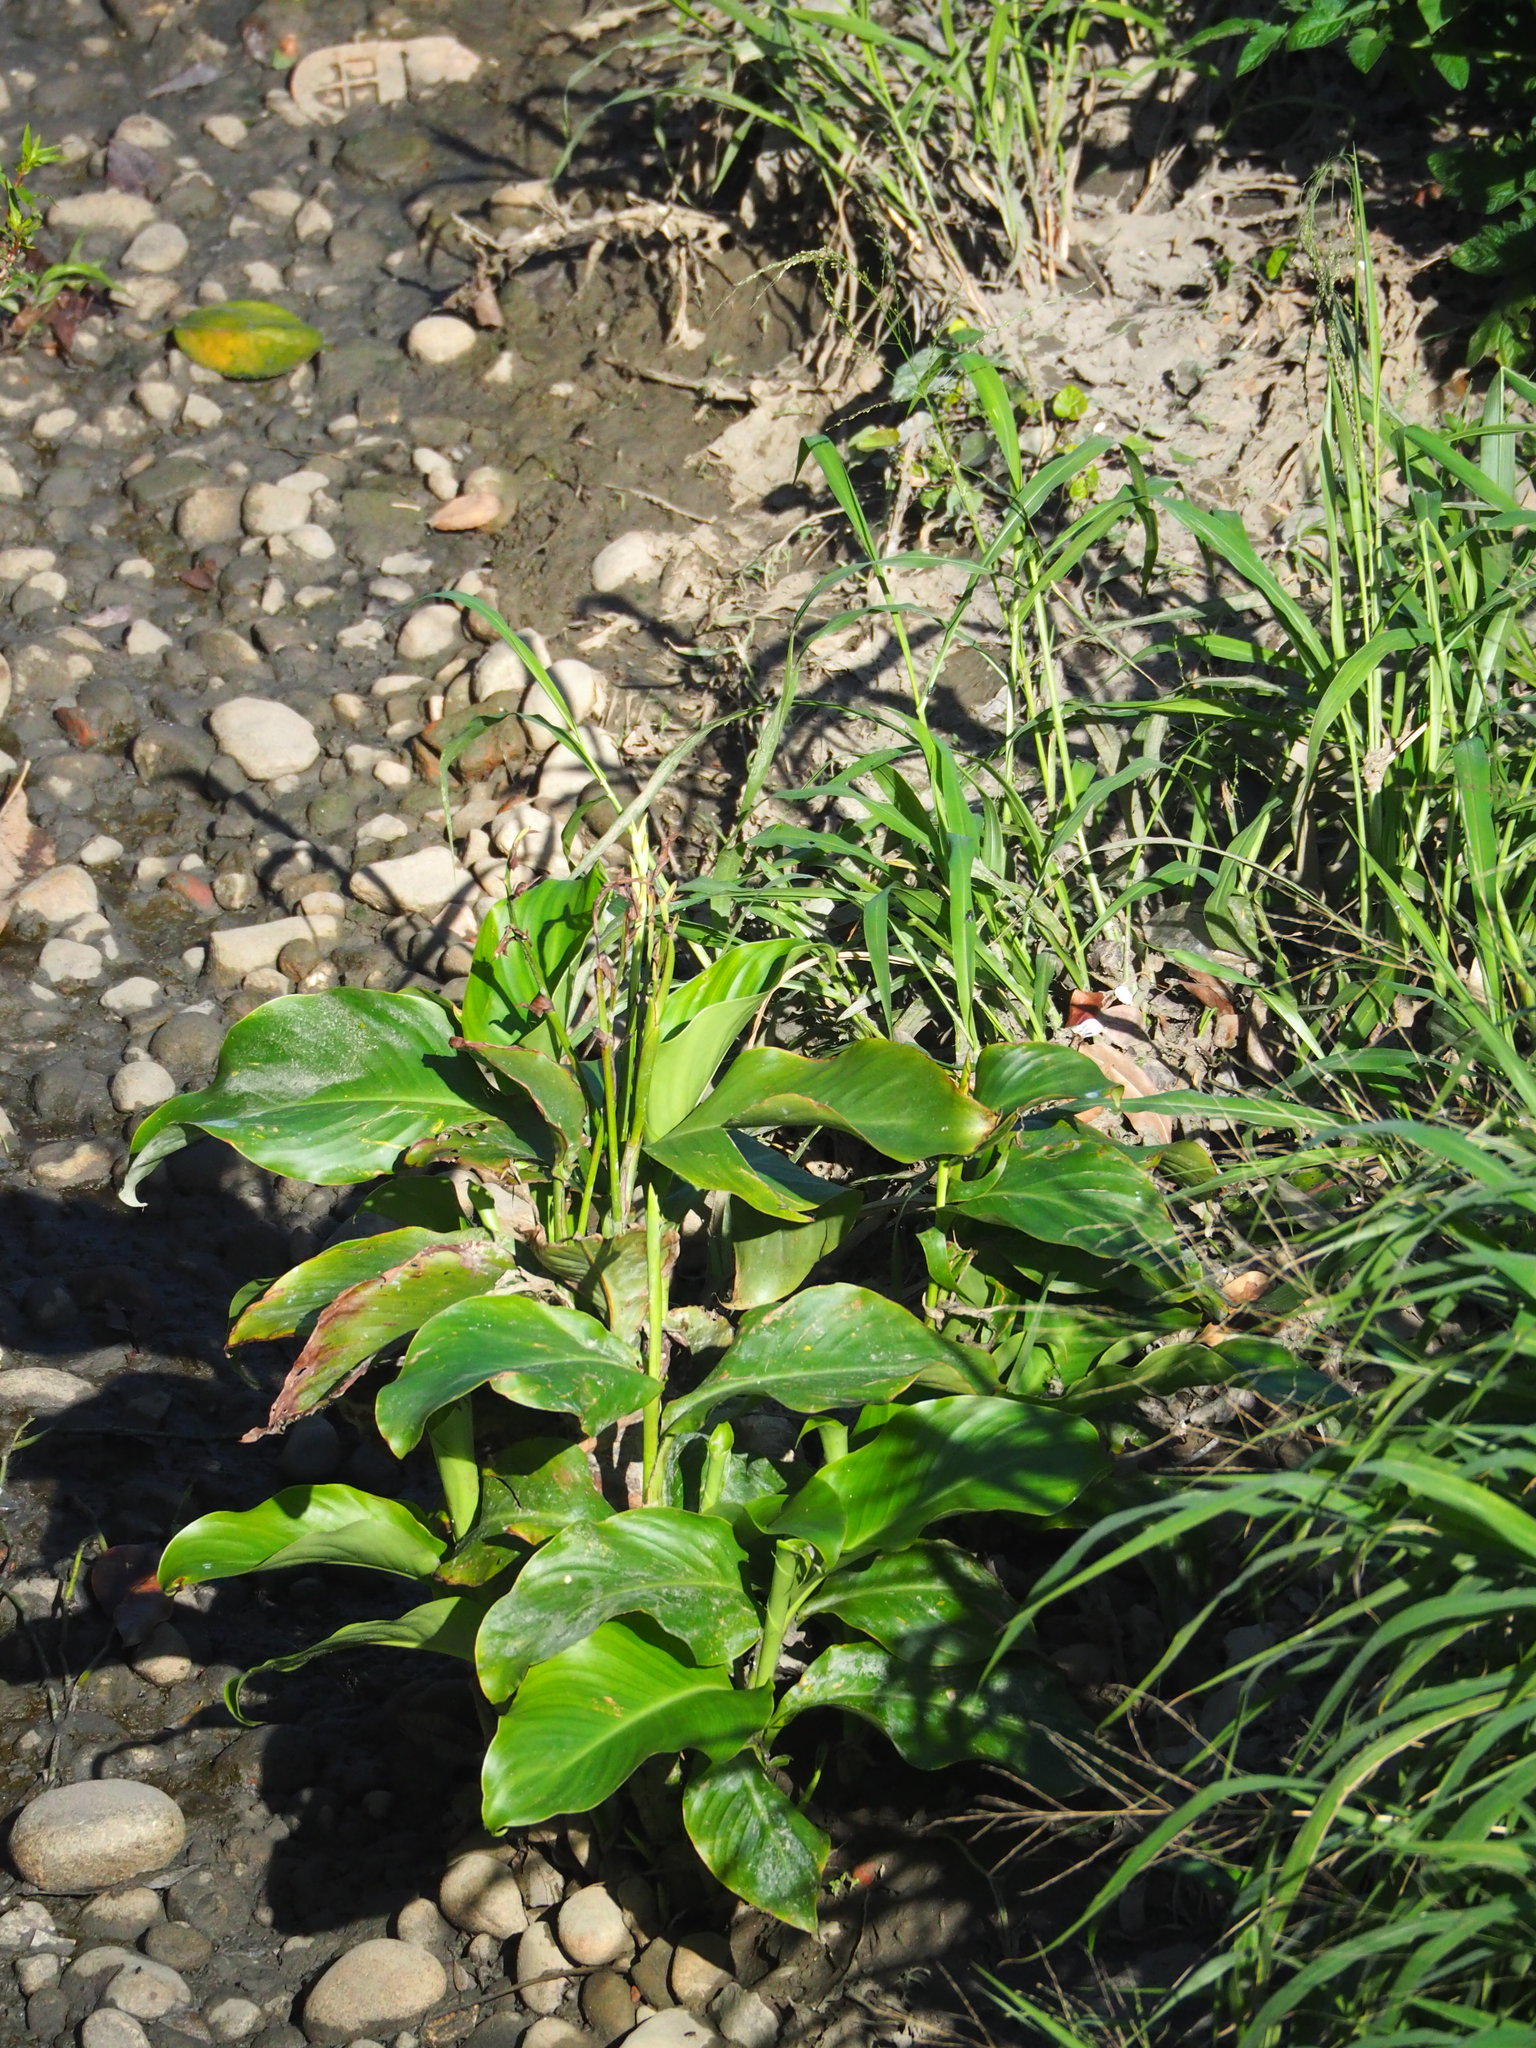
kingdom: Plantae
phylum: Tracheophyta
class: Liliopsida
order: Zingiberales
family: Cannaceae
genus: Canna
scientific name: Canna indica
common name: Indian shot
